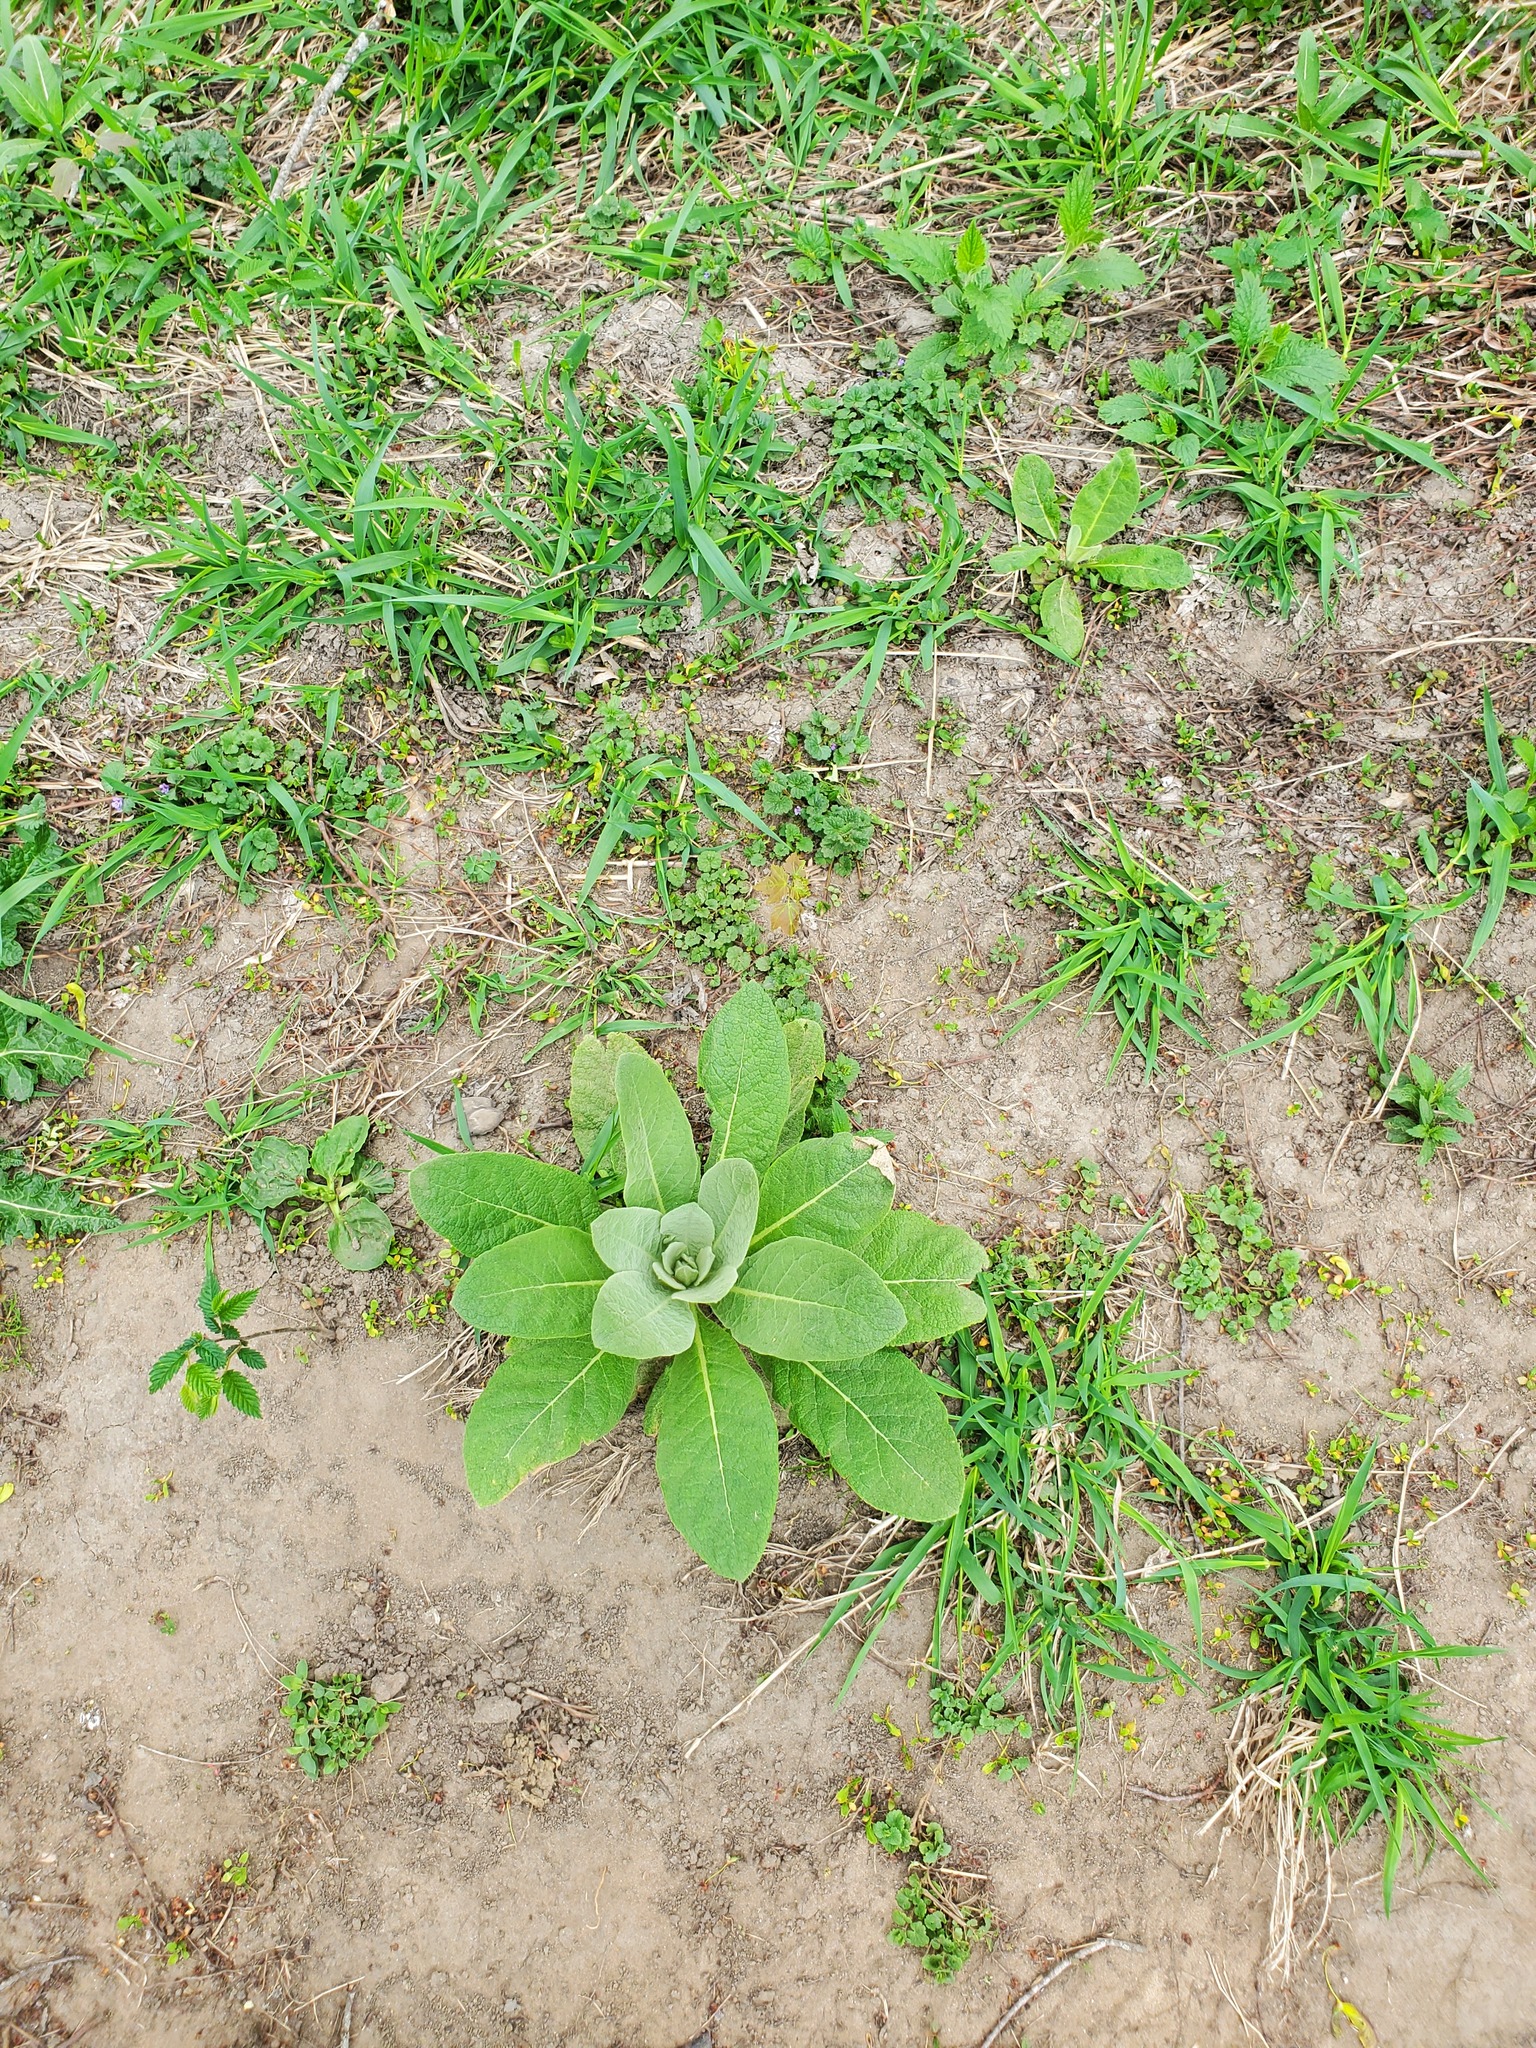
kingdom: Plantae
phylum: Tracheophyta
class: Magnoliopsida
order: Lamiales
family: Scrophulariaceae
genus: Verbascum
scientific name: Verbascum thapsus
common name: Common mullein
